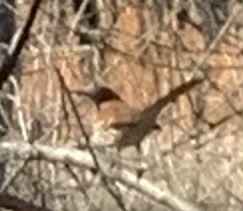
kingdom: Animalia
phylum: Chordata
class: Aves
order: Passeriformes
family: Mimidae
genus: Toxostoma
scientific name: Toxostoma rufum
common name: Brown thrasher
